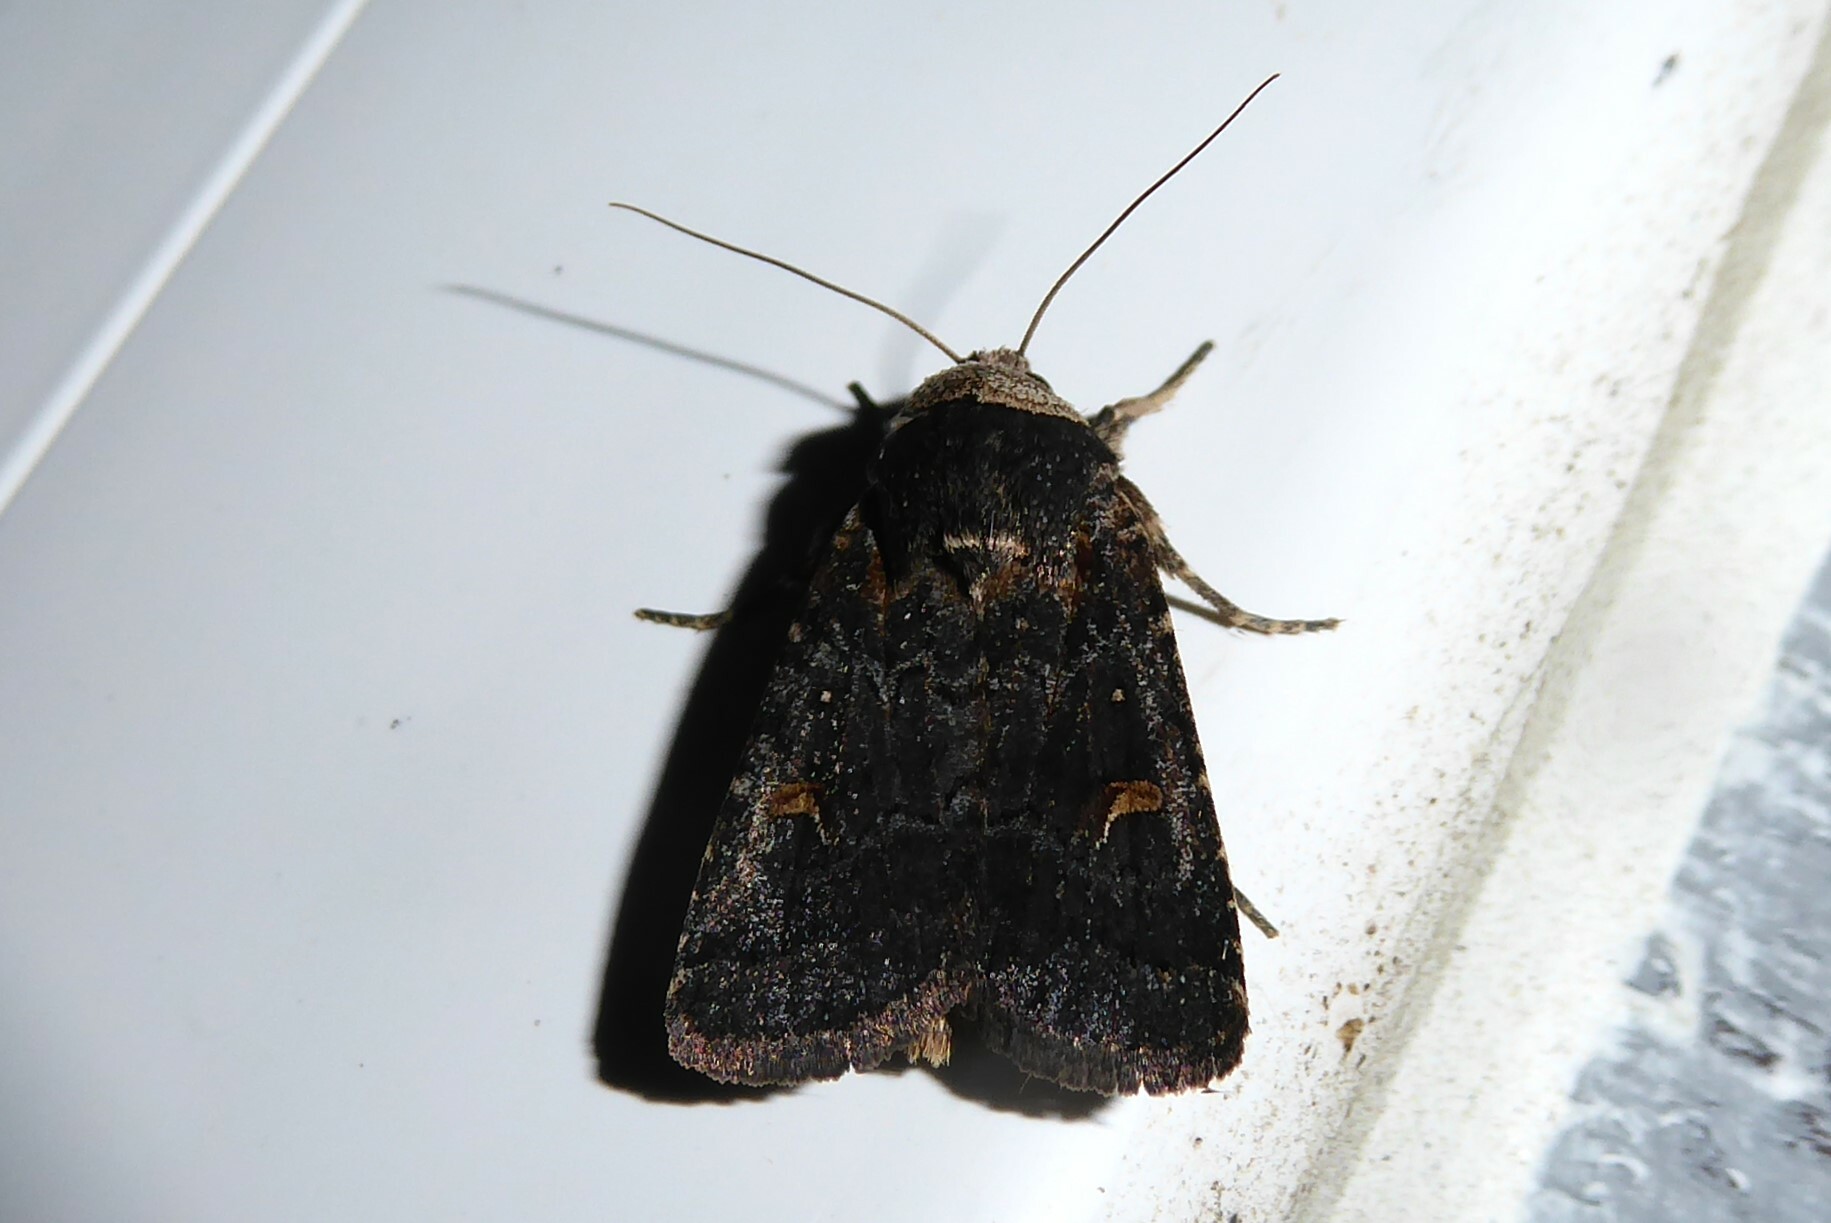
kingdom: Animalia
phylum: Arthropoda
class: Insecta
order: Lepidoptera
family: Noctuidae
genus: Proteuxoa
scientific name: Proteuxoa tetronycha
